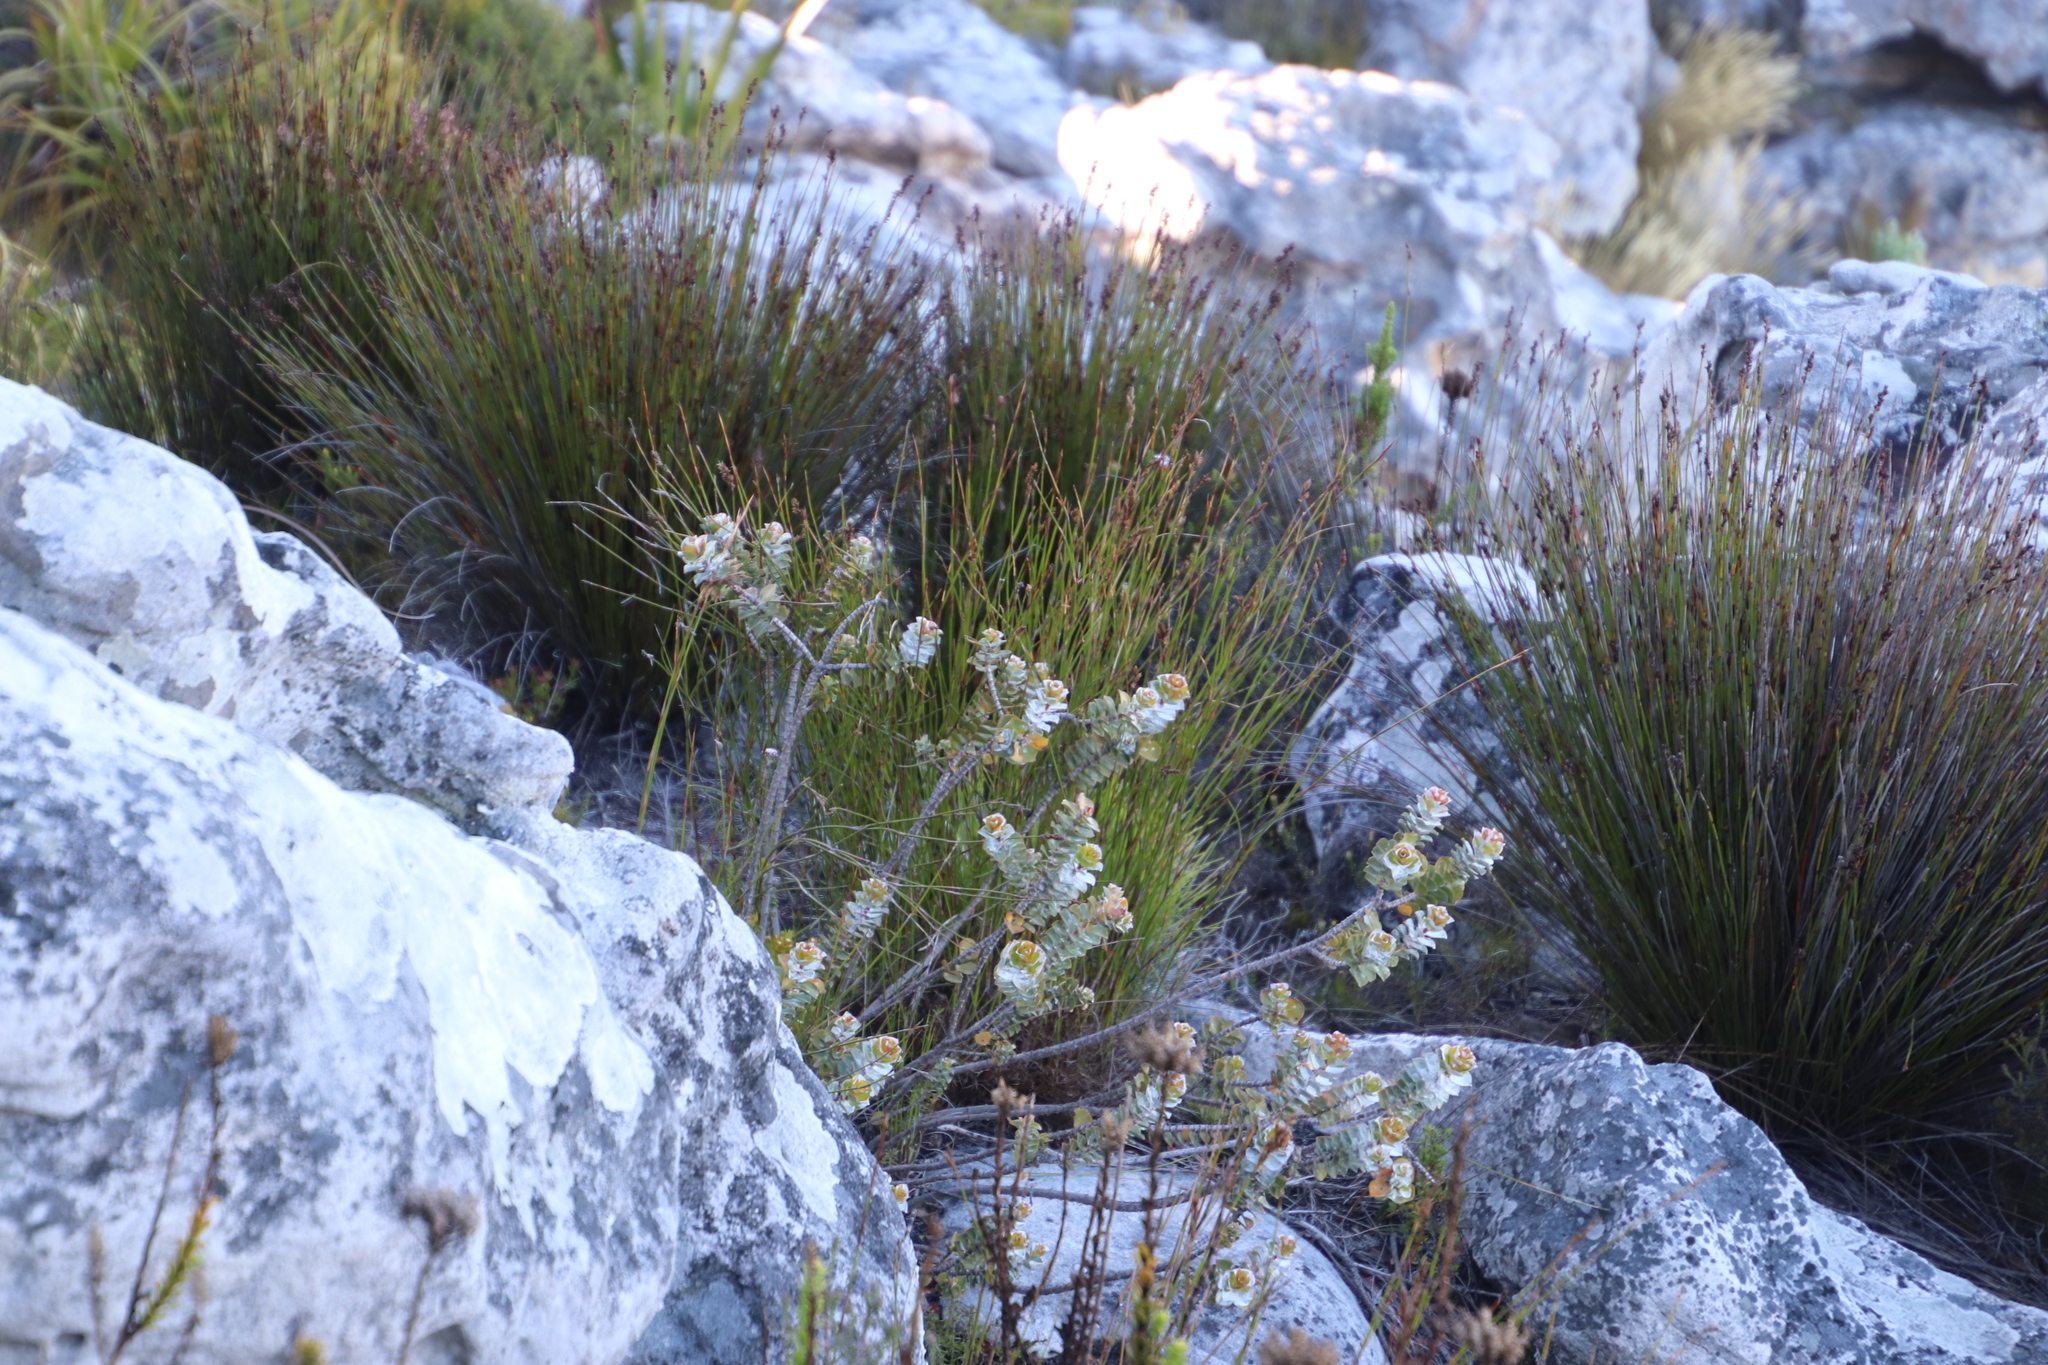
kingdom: Plantae
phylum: Tracheophyta
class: Magnoliopsida
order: Myrtales
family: Penaeaceae
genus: Saltera
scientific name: Saltera sarcocolla
